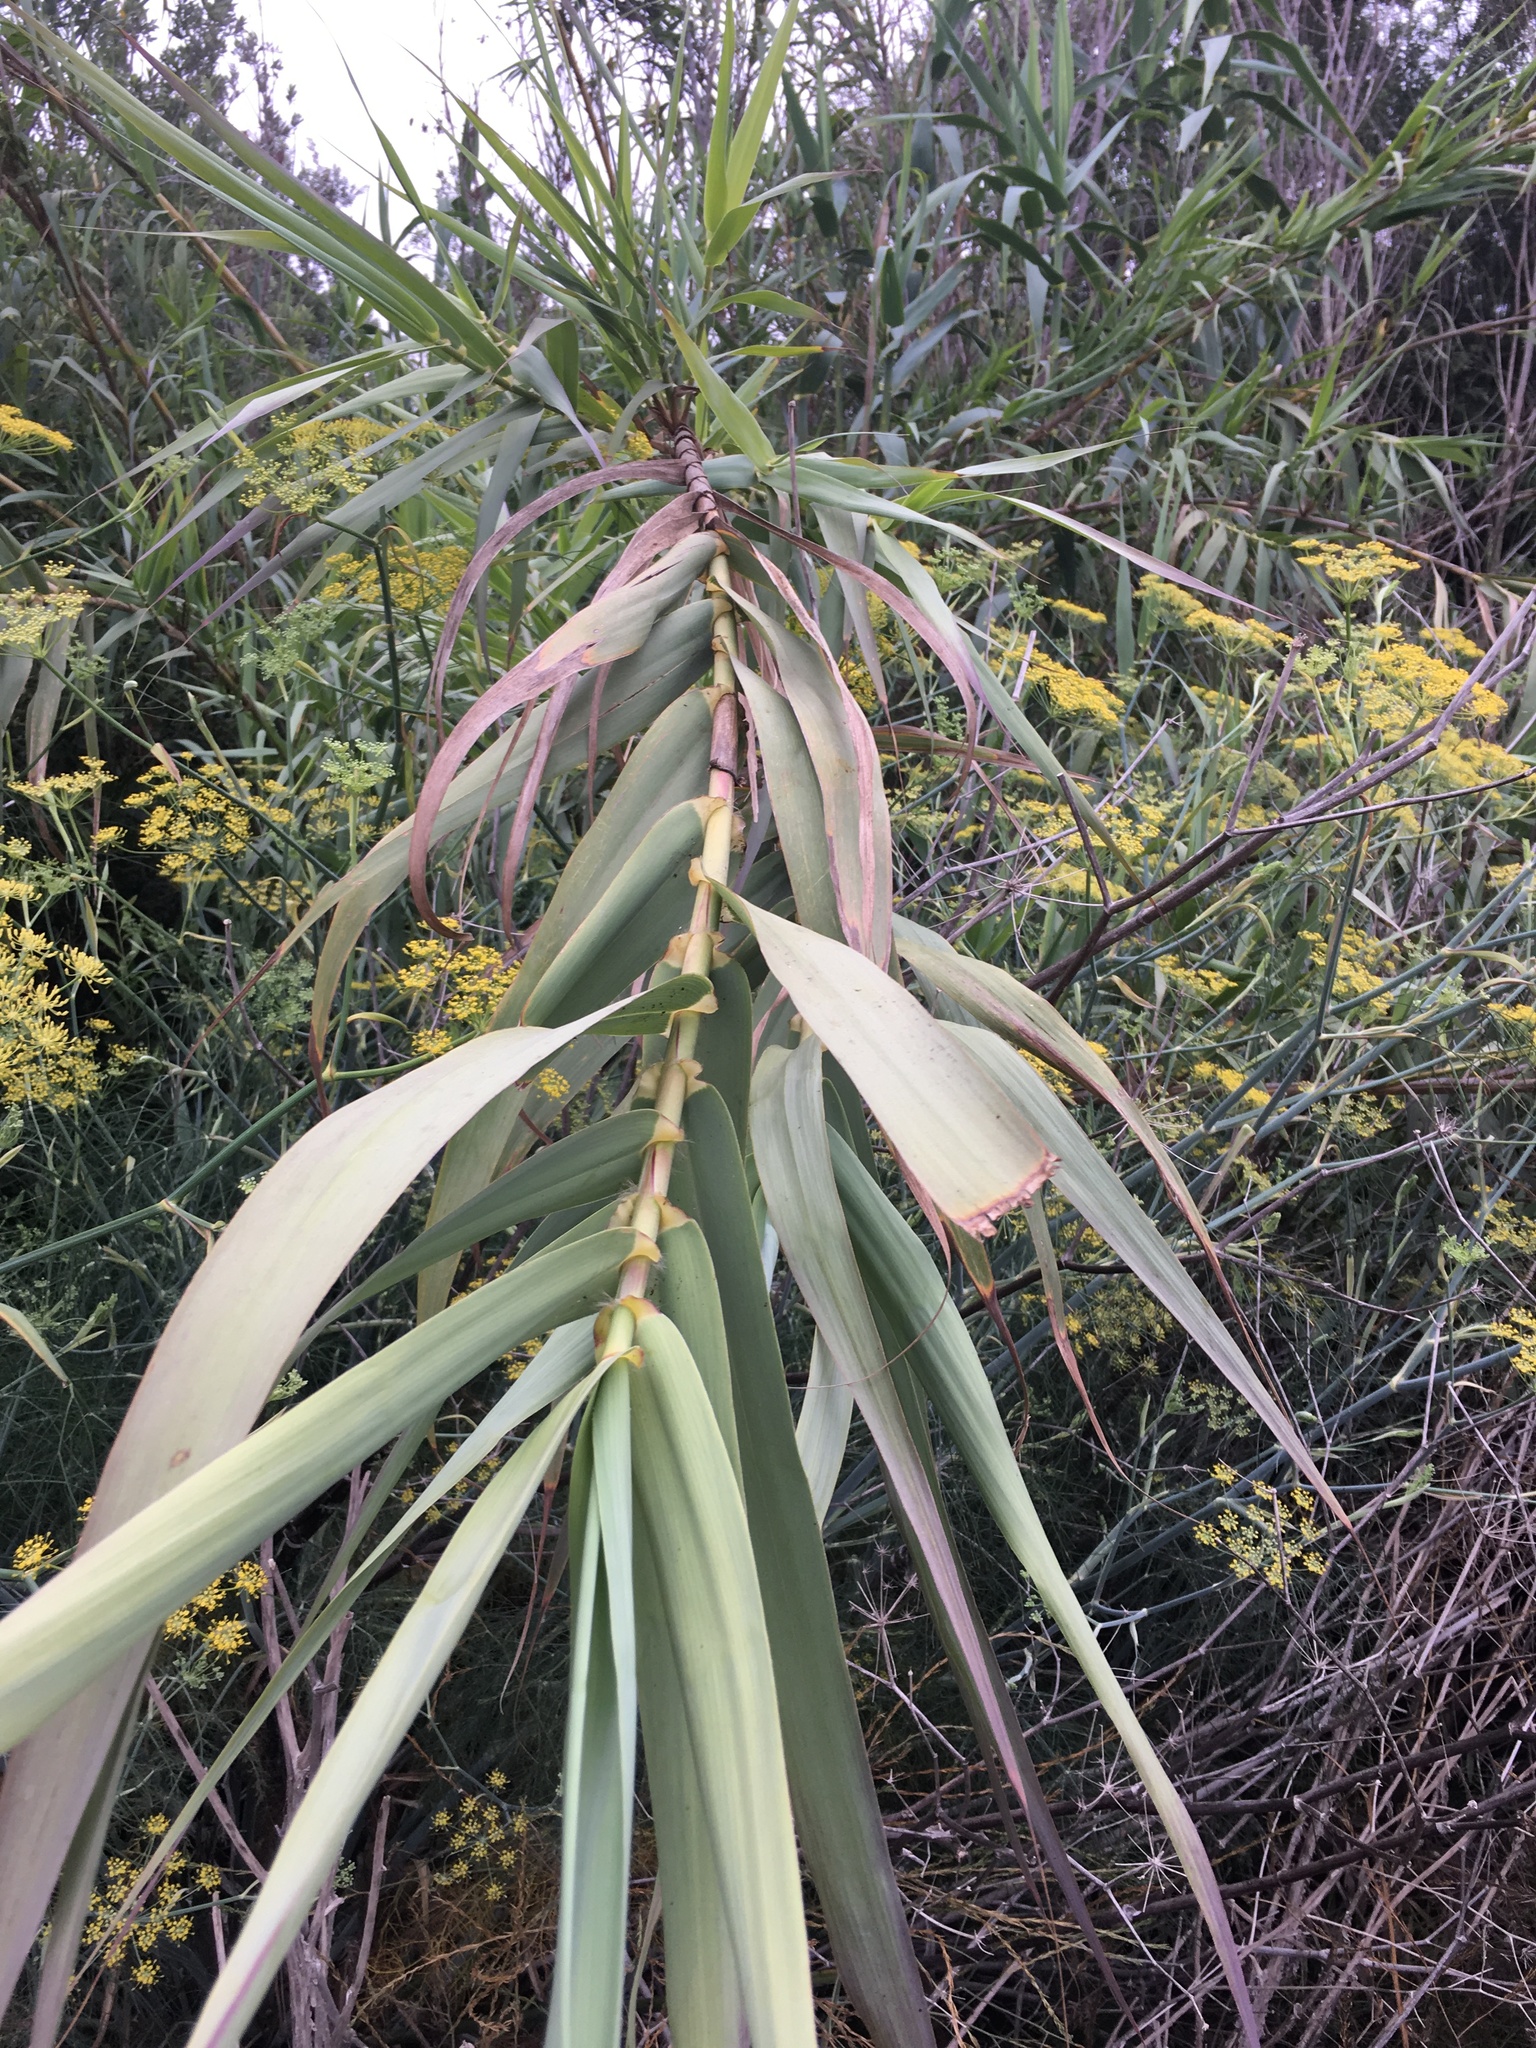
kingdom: Plantae
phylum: Tracheophyta
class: Liliopsida
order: Poales
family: Poaceae
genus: Arundo
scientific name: Arundo donax
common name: Giant reed
